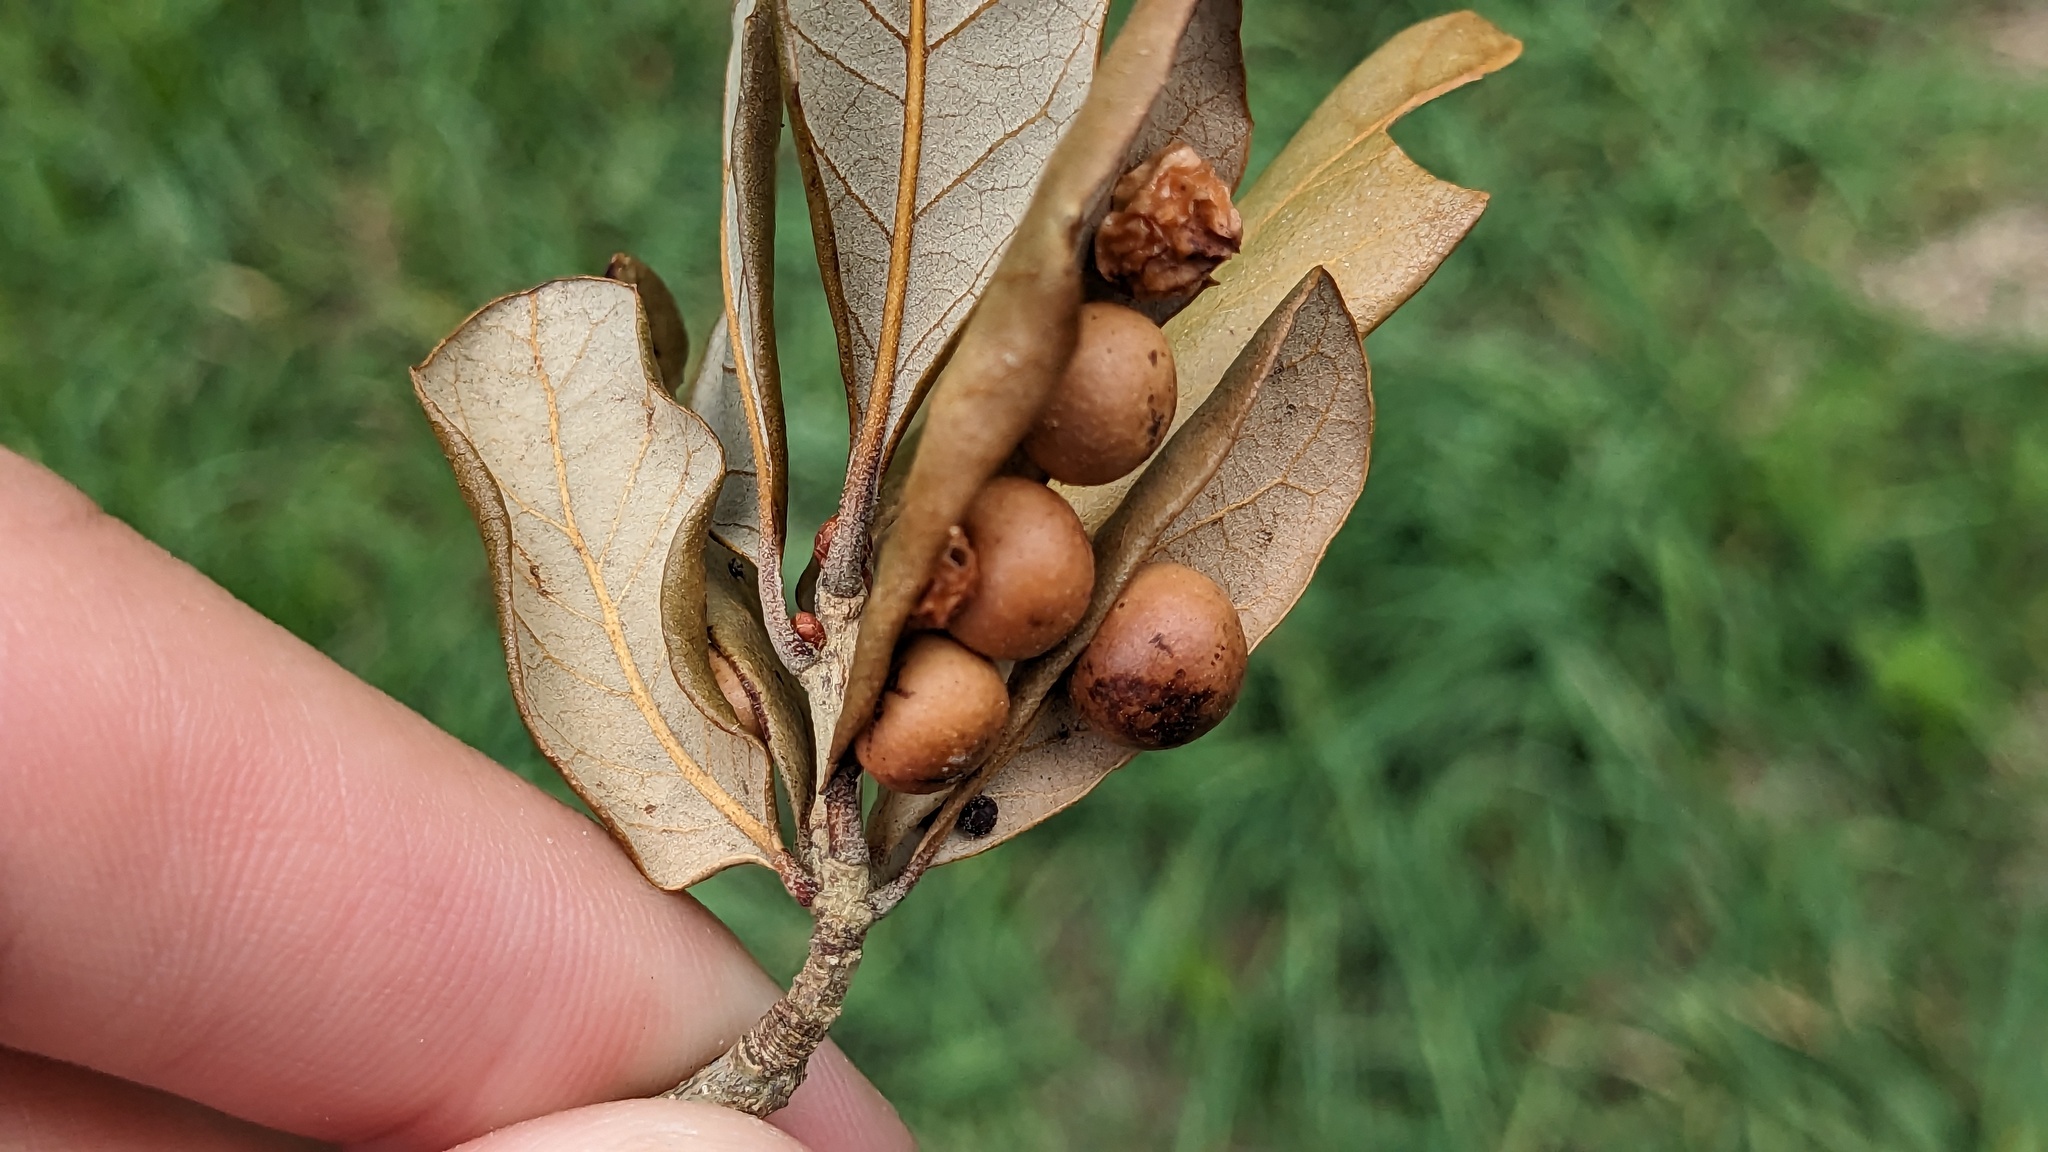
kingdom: Animalia
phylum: Arthropoda
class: Insecta
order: Hymenoptera
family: Cynipidae
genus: Belonocnema
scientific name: Belonocnema kinseyi
